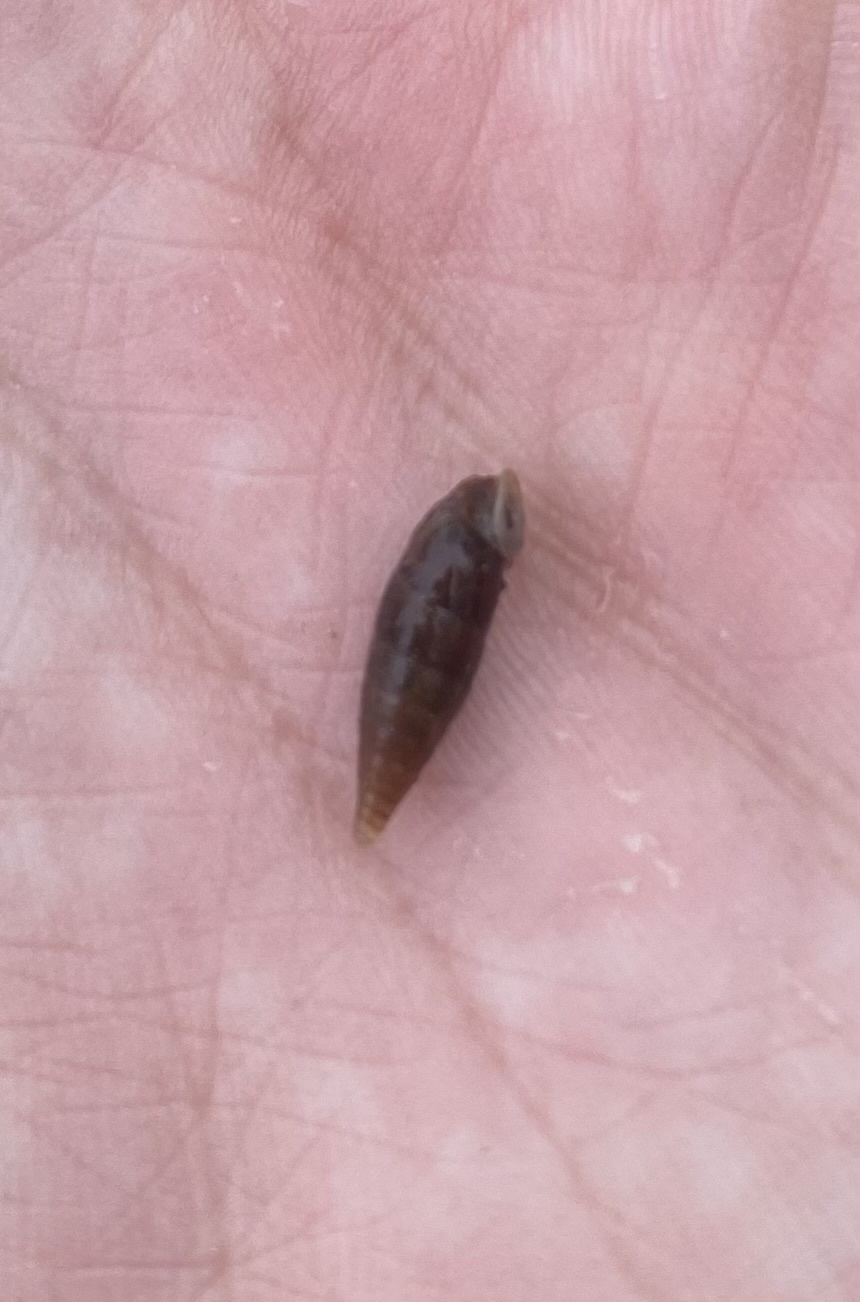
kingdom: Animalia
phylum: Mollusca
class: Gastropoda
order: Stylommatophora
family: Clausiliidae
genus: Elia
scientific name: Elia novorossica
